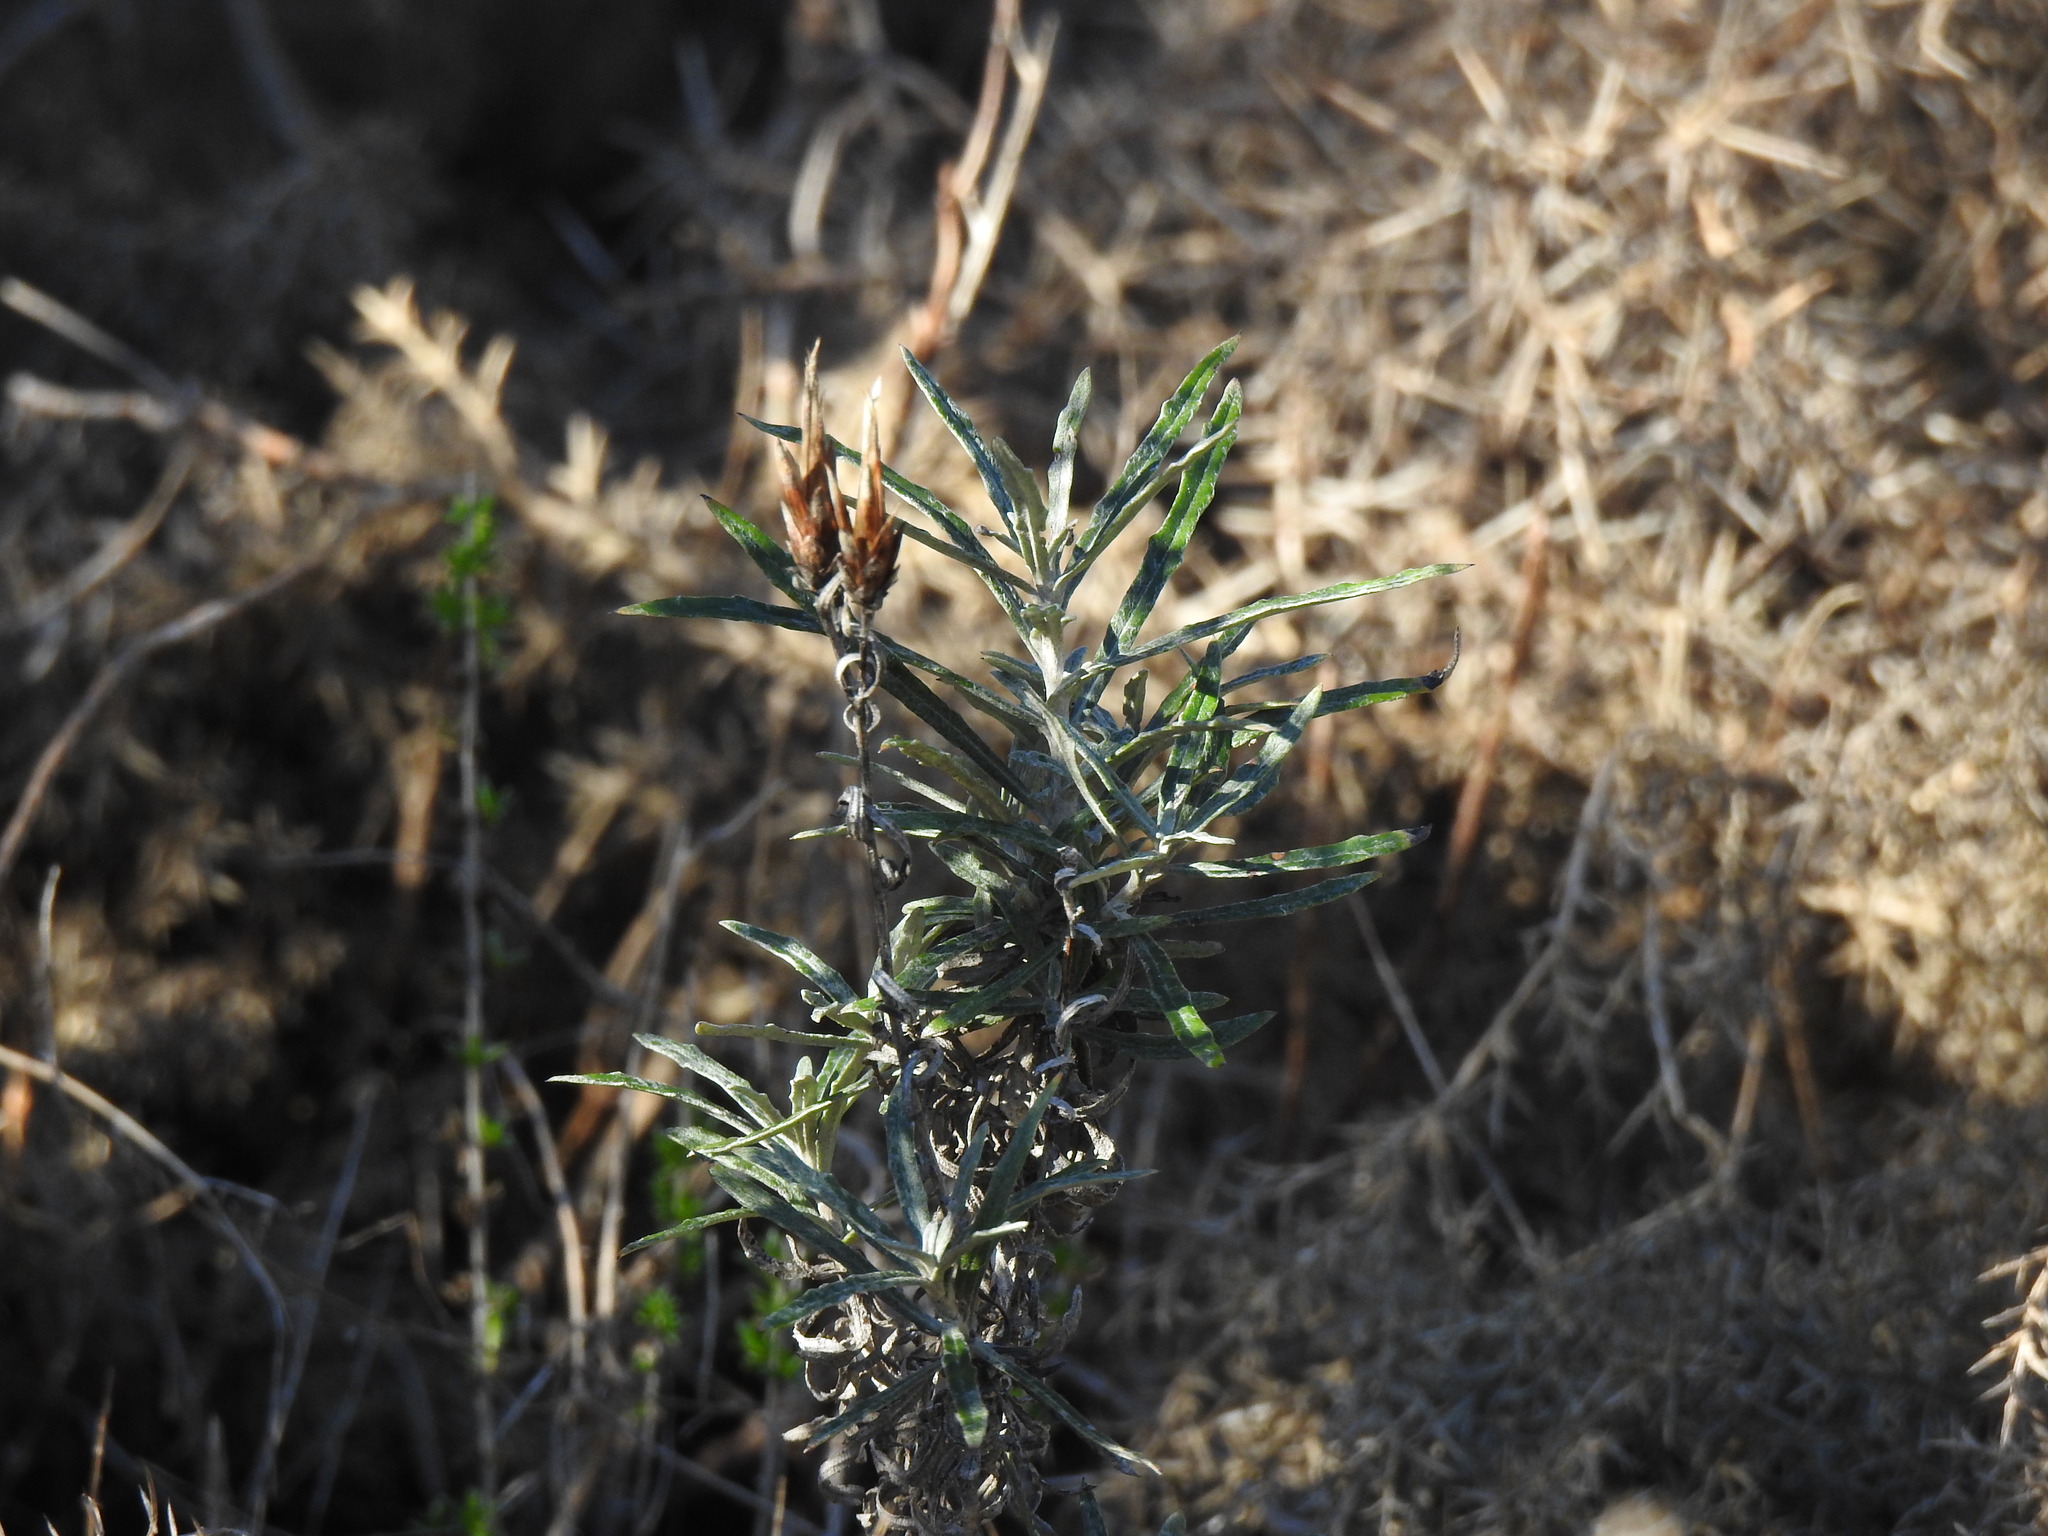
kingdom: Plantae
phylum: Tracheophyta
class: Magnoliopsida
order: Asterales
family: Asteraceae
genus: Staehelina
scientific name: Staehelina dubia
